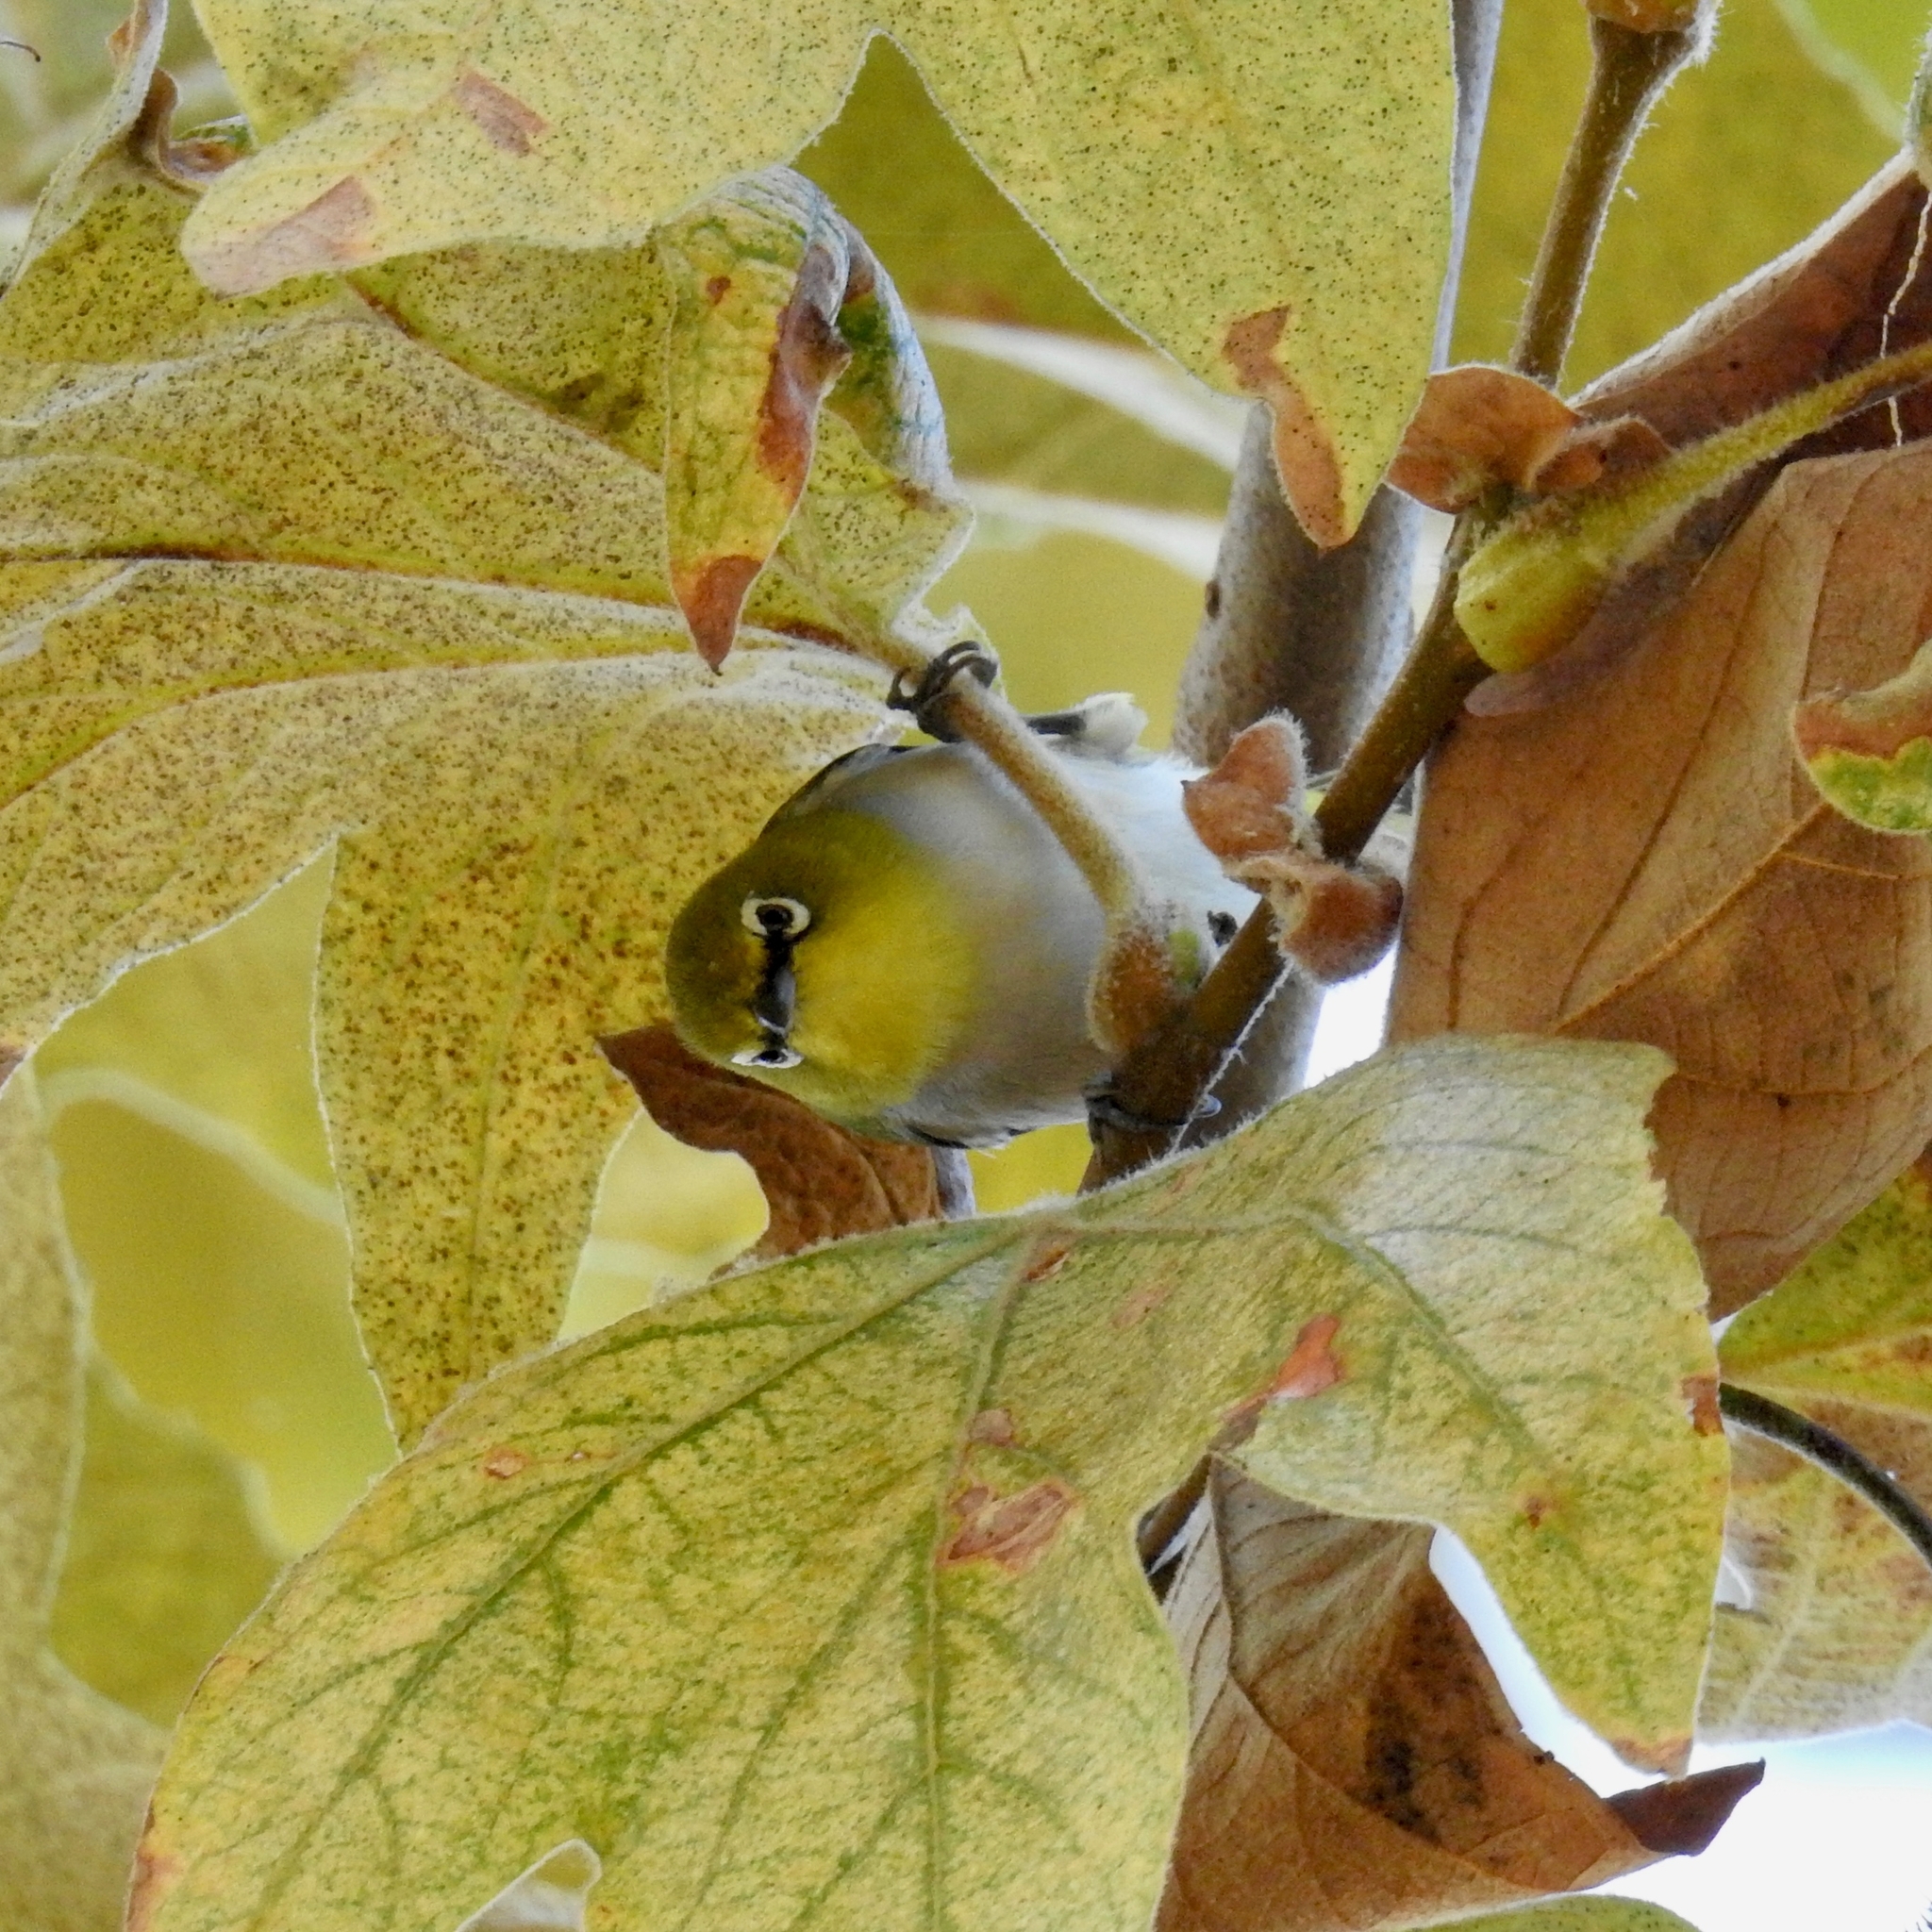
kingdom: Animalia
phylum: Chordata
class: Aves
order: Passeriformes
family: Zosteropidae
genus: Zosterops
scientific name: Zosterops simplex
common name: Swinhoe's white-eye
